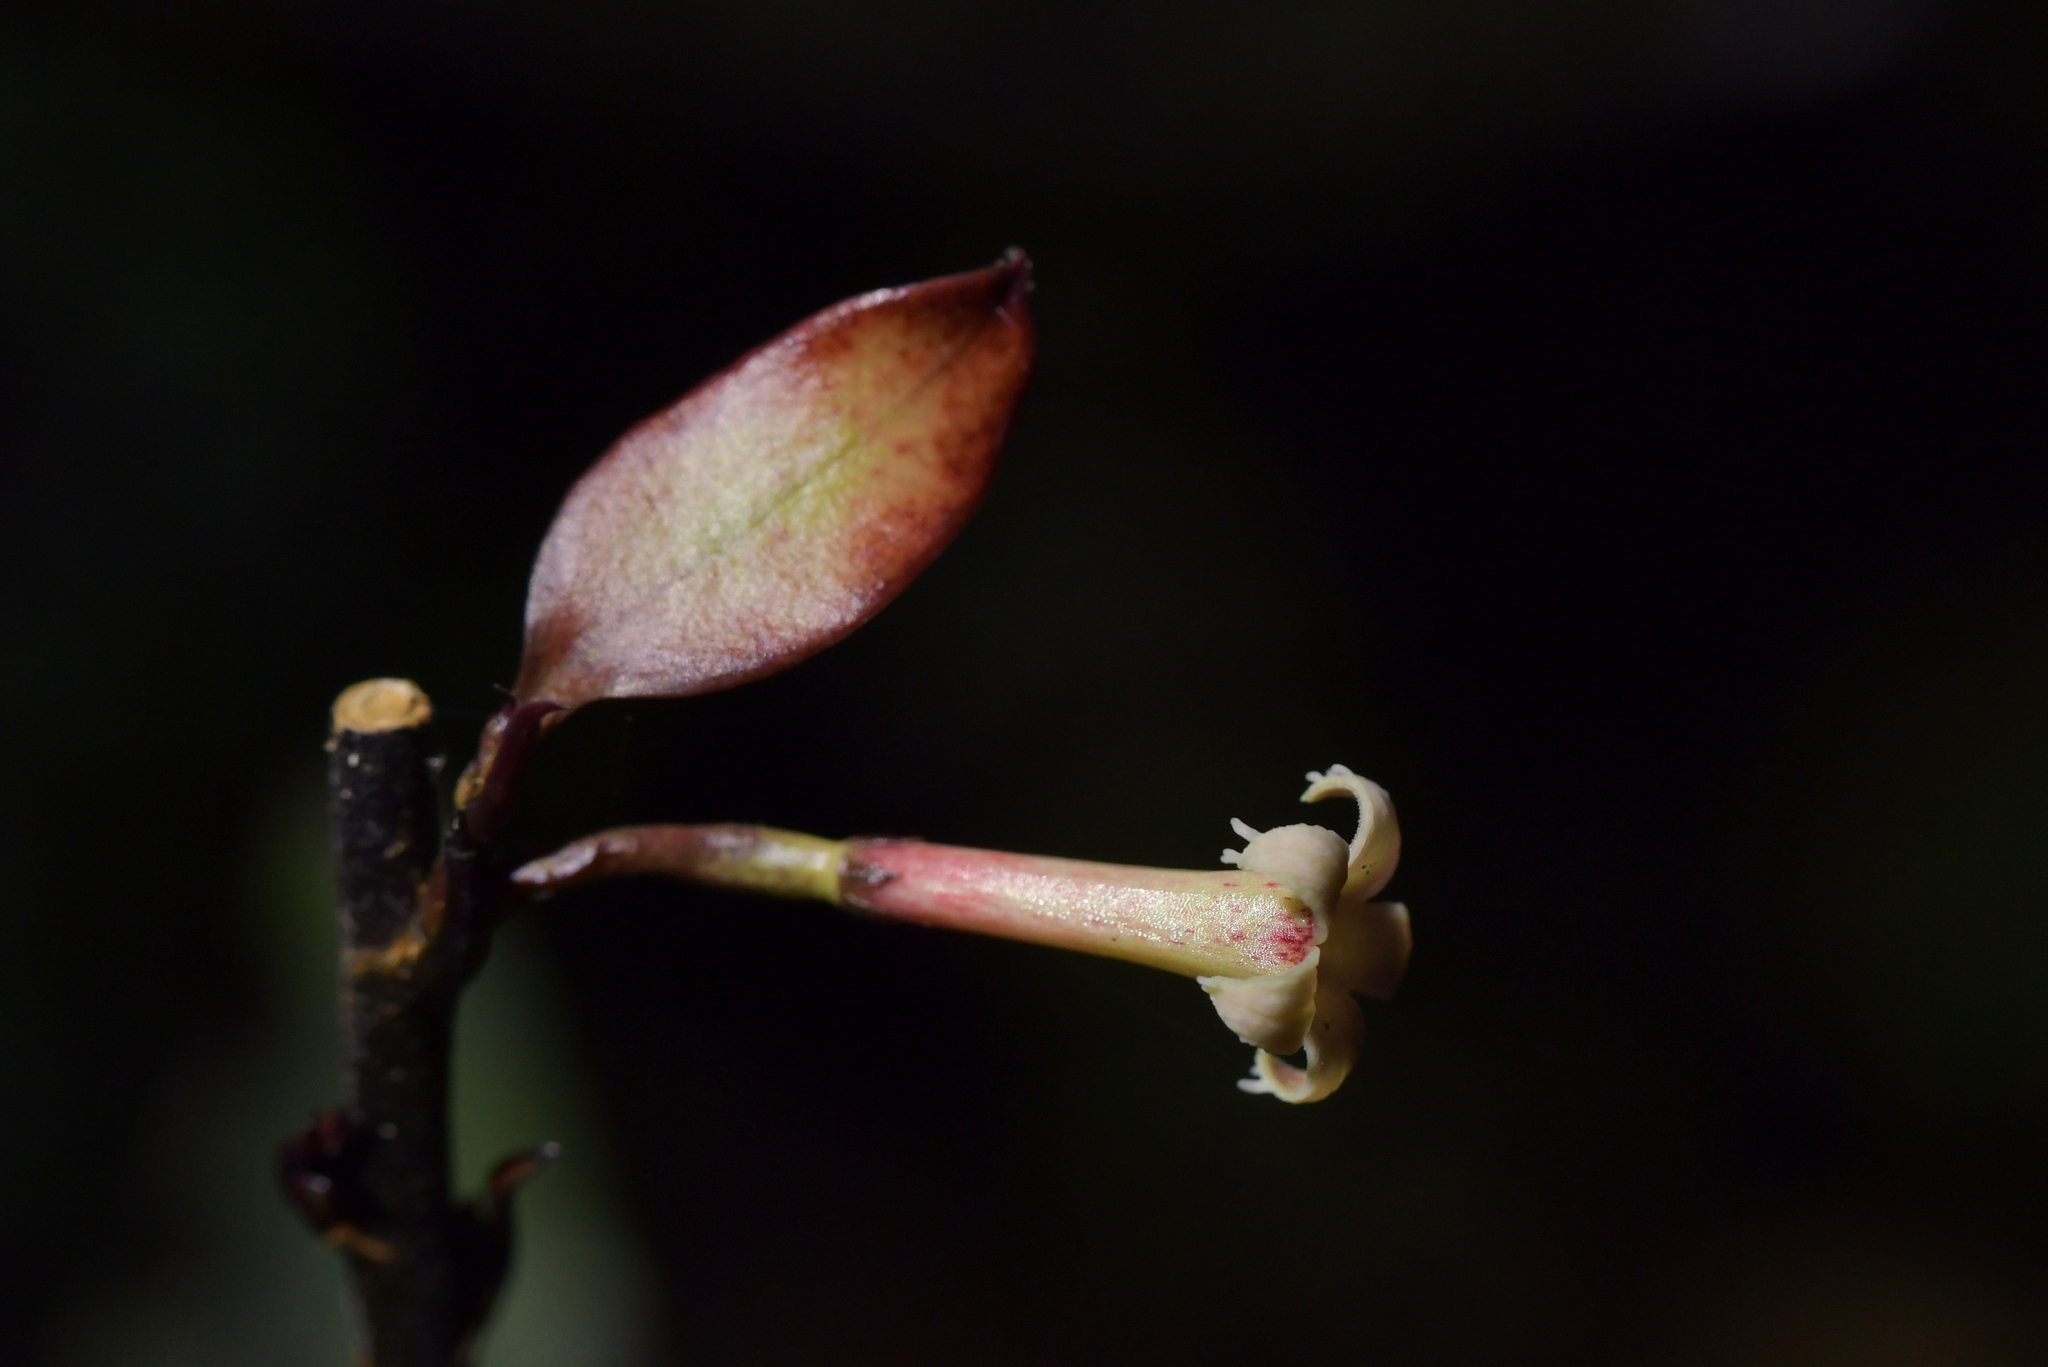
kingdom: Plantae
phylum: Tracheophyta
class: Magnoliopsida
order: Asterales
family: Alseuosmiaceae
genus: Alseuosmia
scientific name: Alseuosmia pusilla
